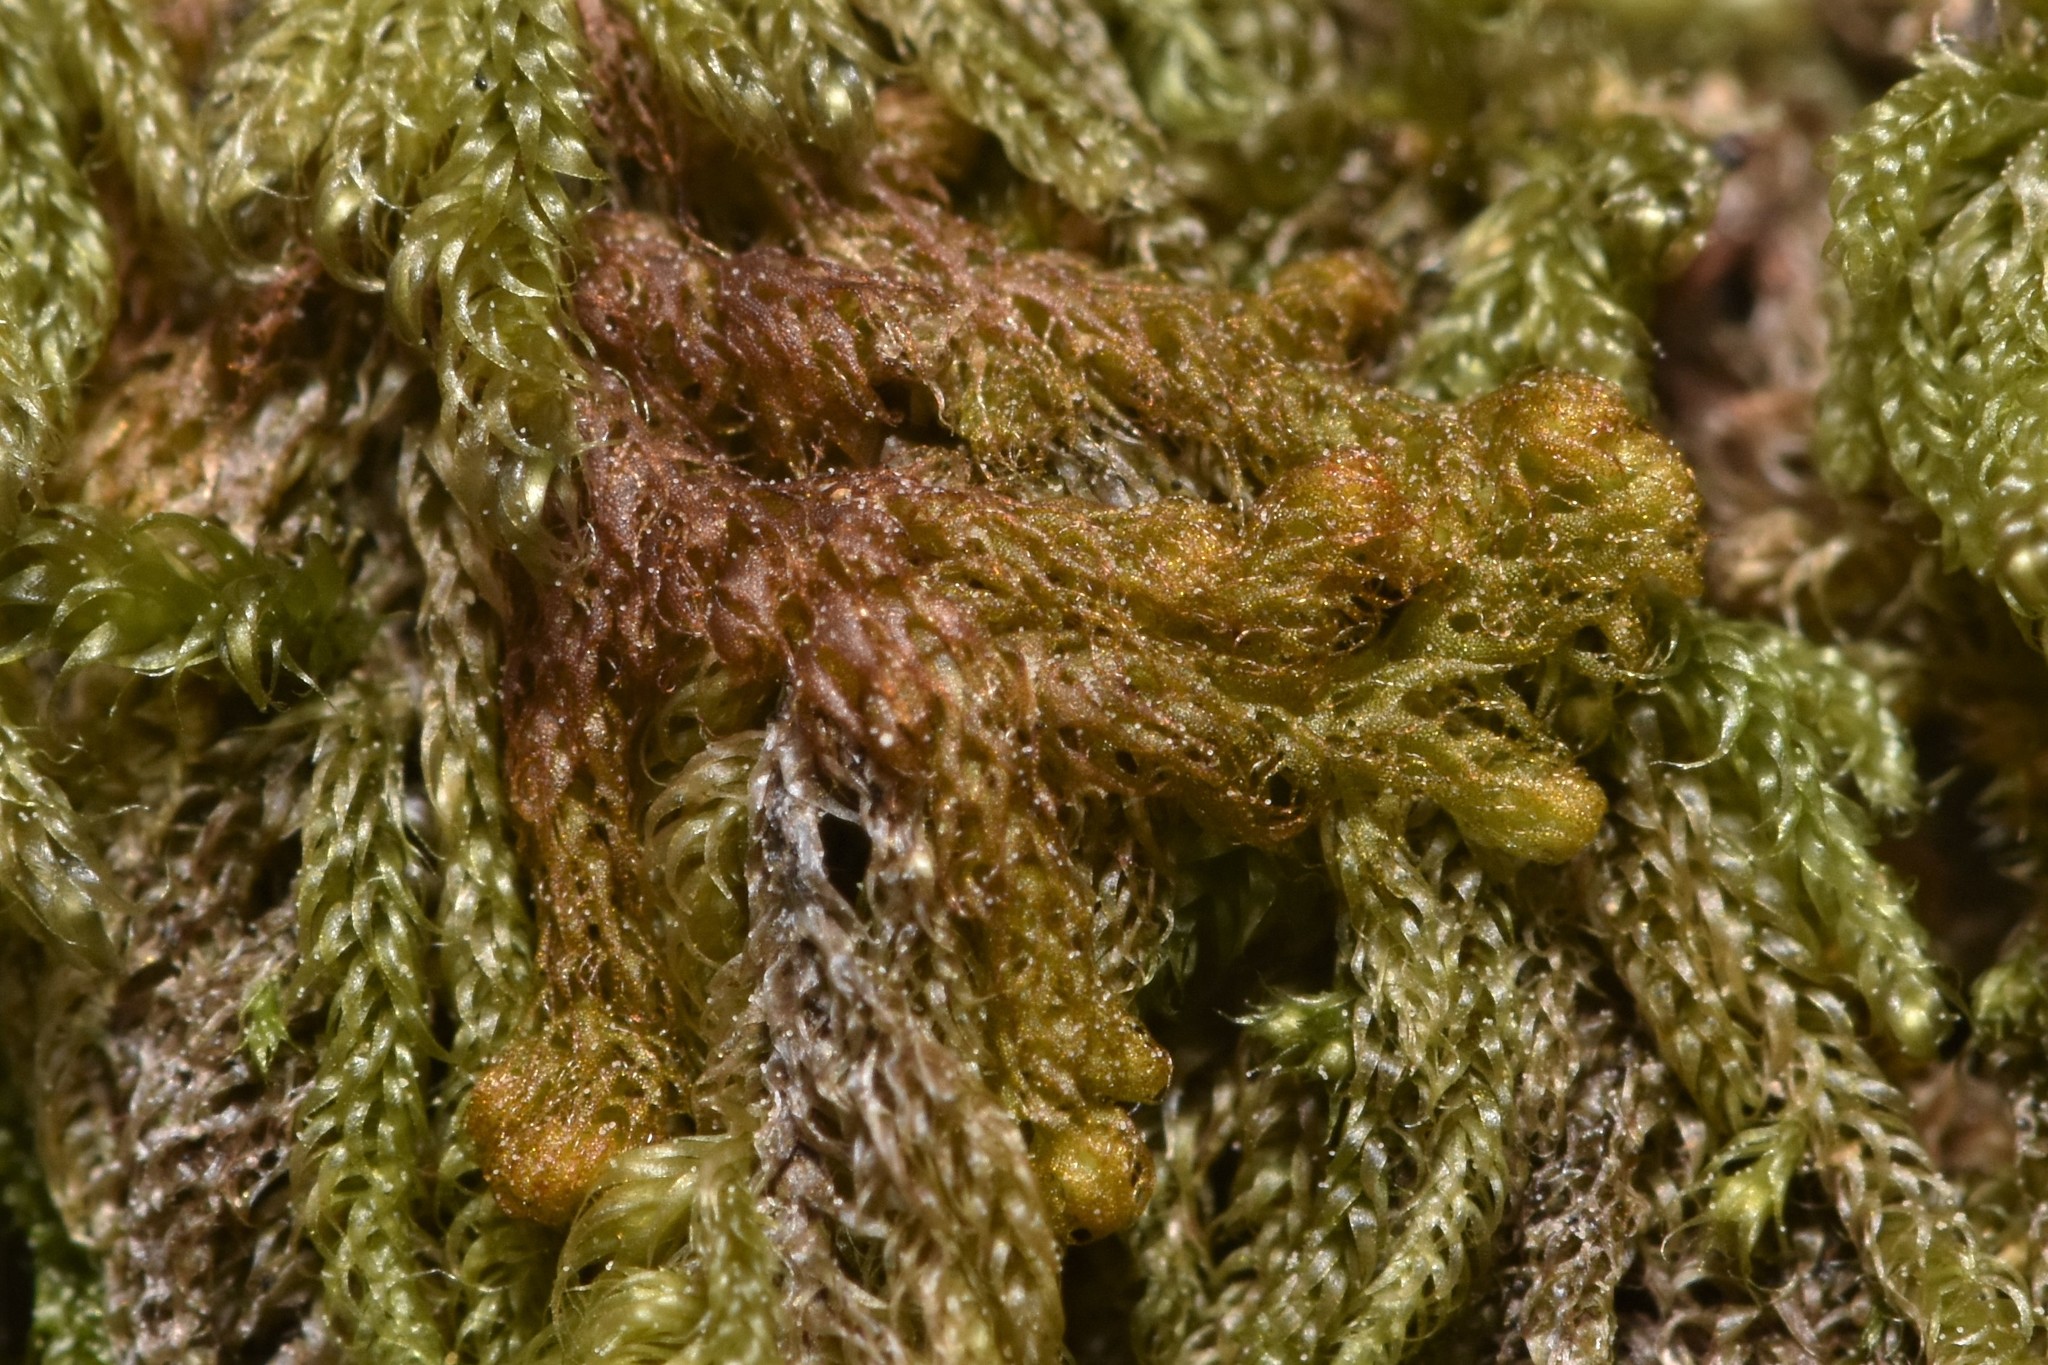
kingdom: Plantae
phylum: Marchantiophyta
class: Jungermanniopsida
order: Ptilidiales
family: Ptilidiaceae
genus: Ptilidium
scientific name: Ptilidium californicum
